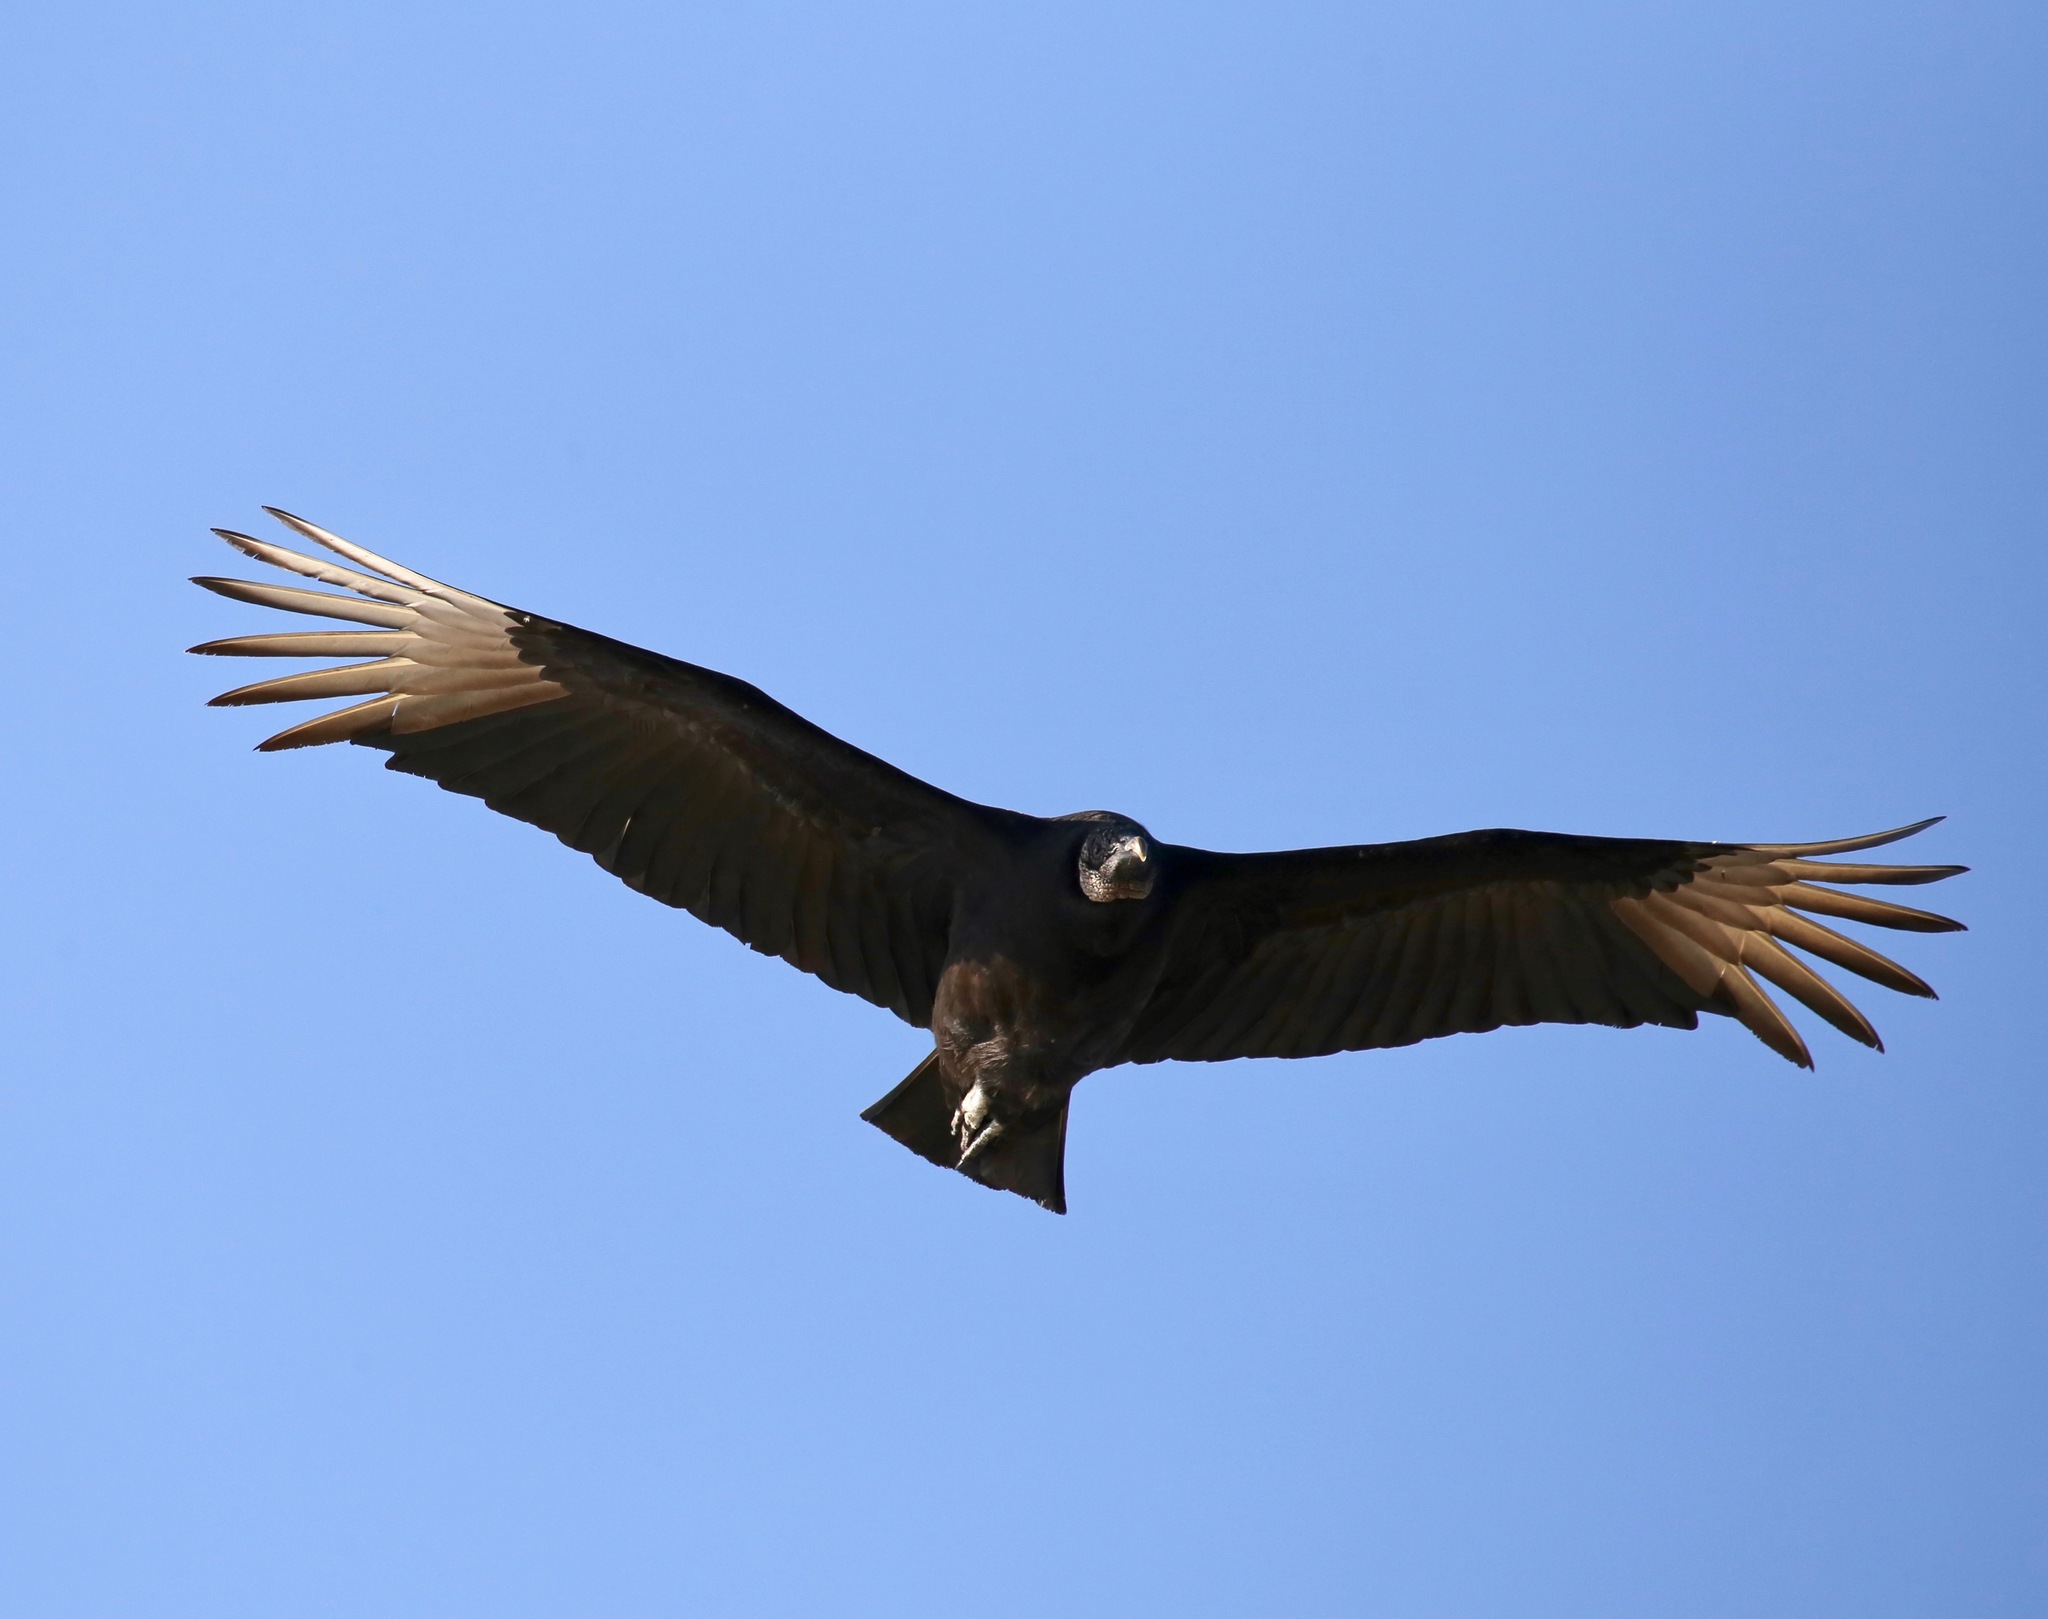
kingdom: Animalia
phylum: Chordata
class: Aves
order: Accipitriformes
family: Cathartidae
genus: Coragyps
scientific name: Coragyps atratus
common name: Black vulture
